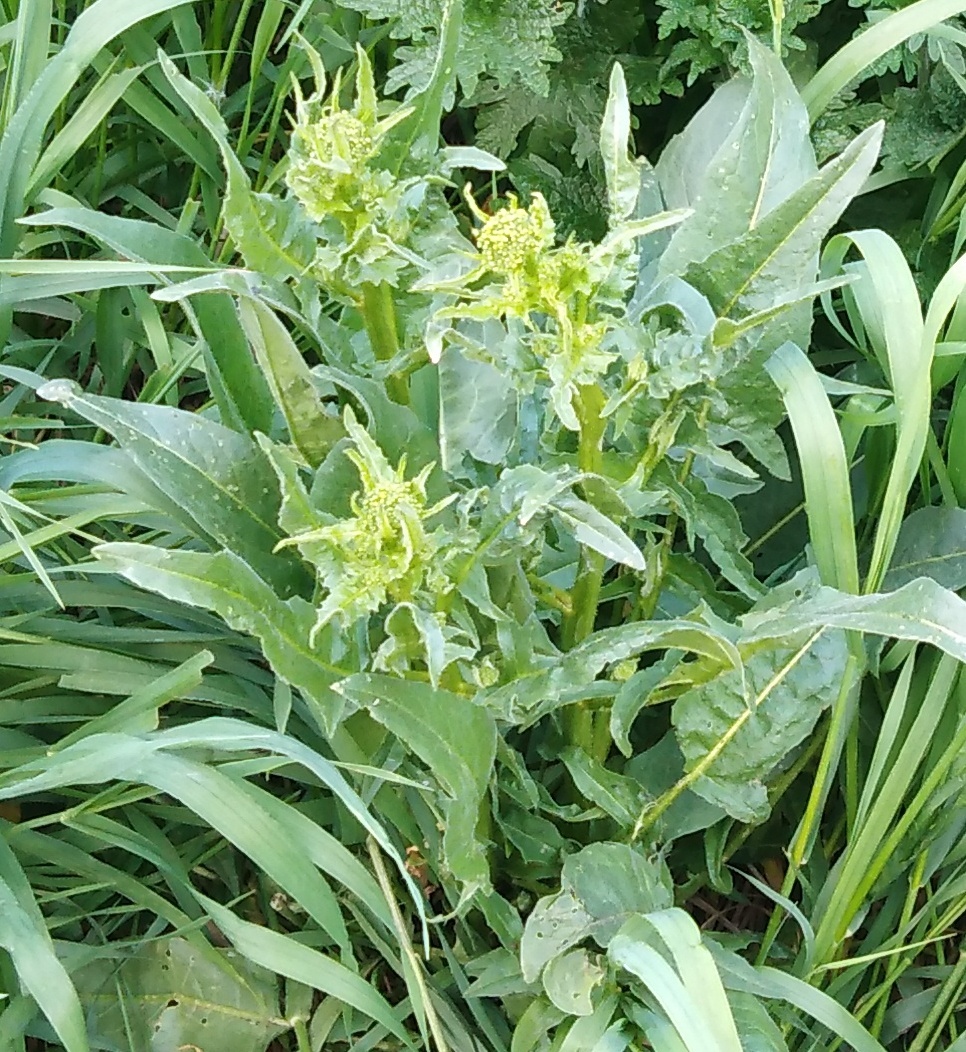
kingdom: Plantae
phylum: Tracheophyta
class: Magnoliopsida
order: Brassicales
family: Brassicaceae
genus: Bunias
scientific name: Bunias orientalis
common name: Warty-cabbage
